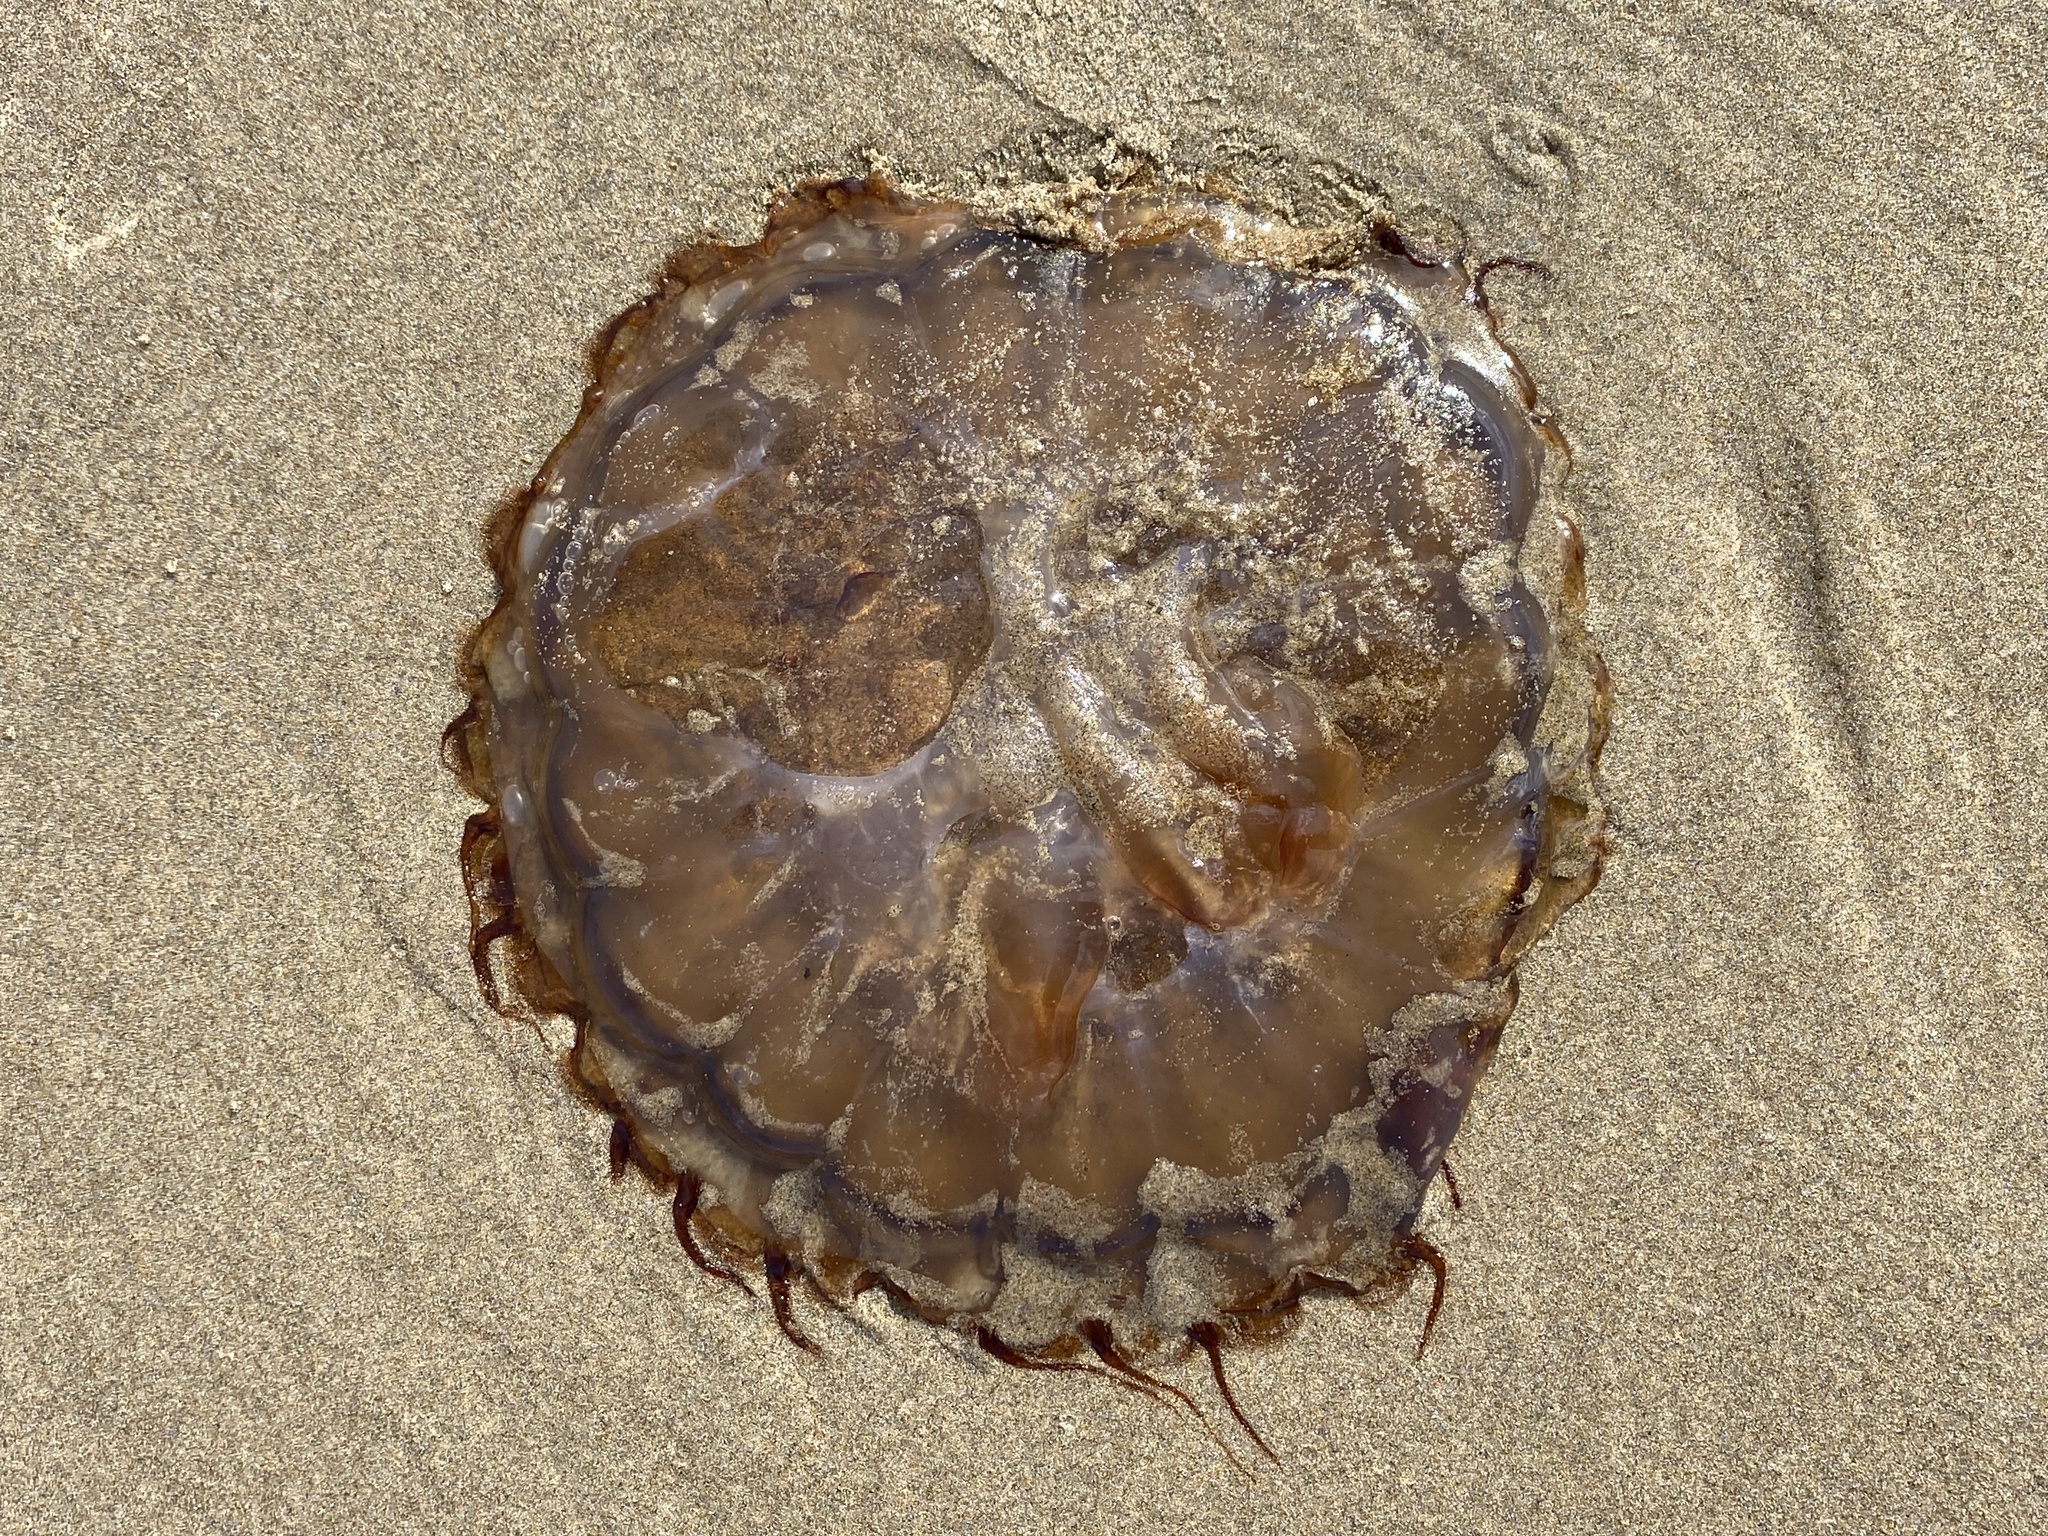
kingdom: Animalia
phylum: Cnidaria
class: Scyphozoa
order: Semaeostomeae
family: Pelagiidae
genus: Chrysaora
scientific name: Chrysaora fuscescens
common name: Sea nettle
